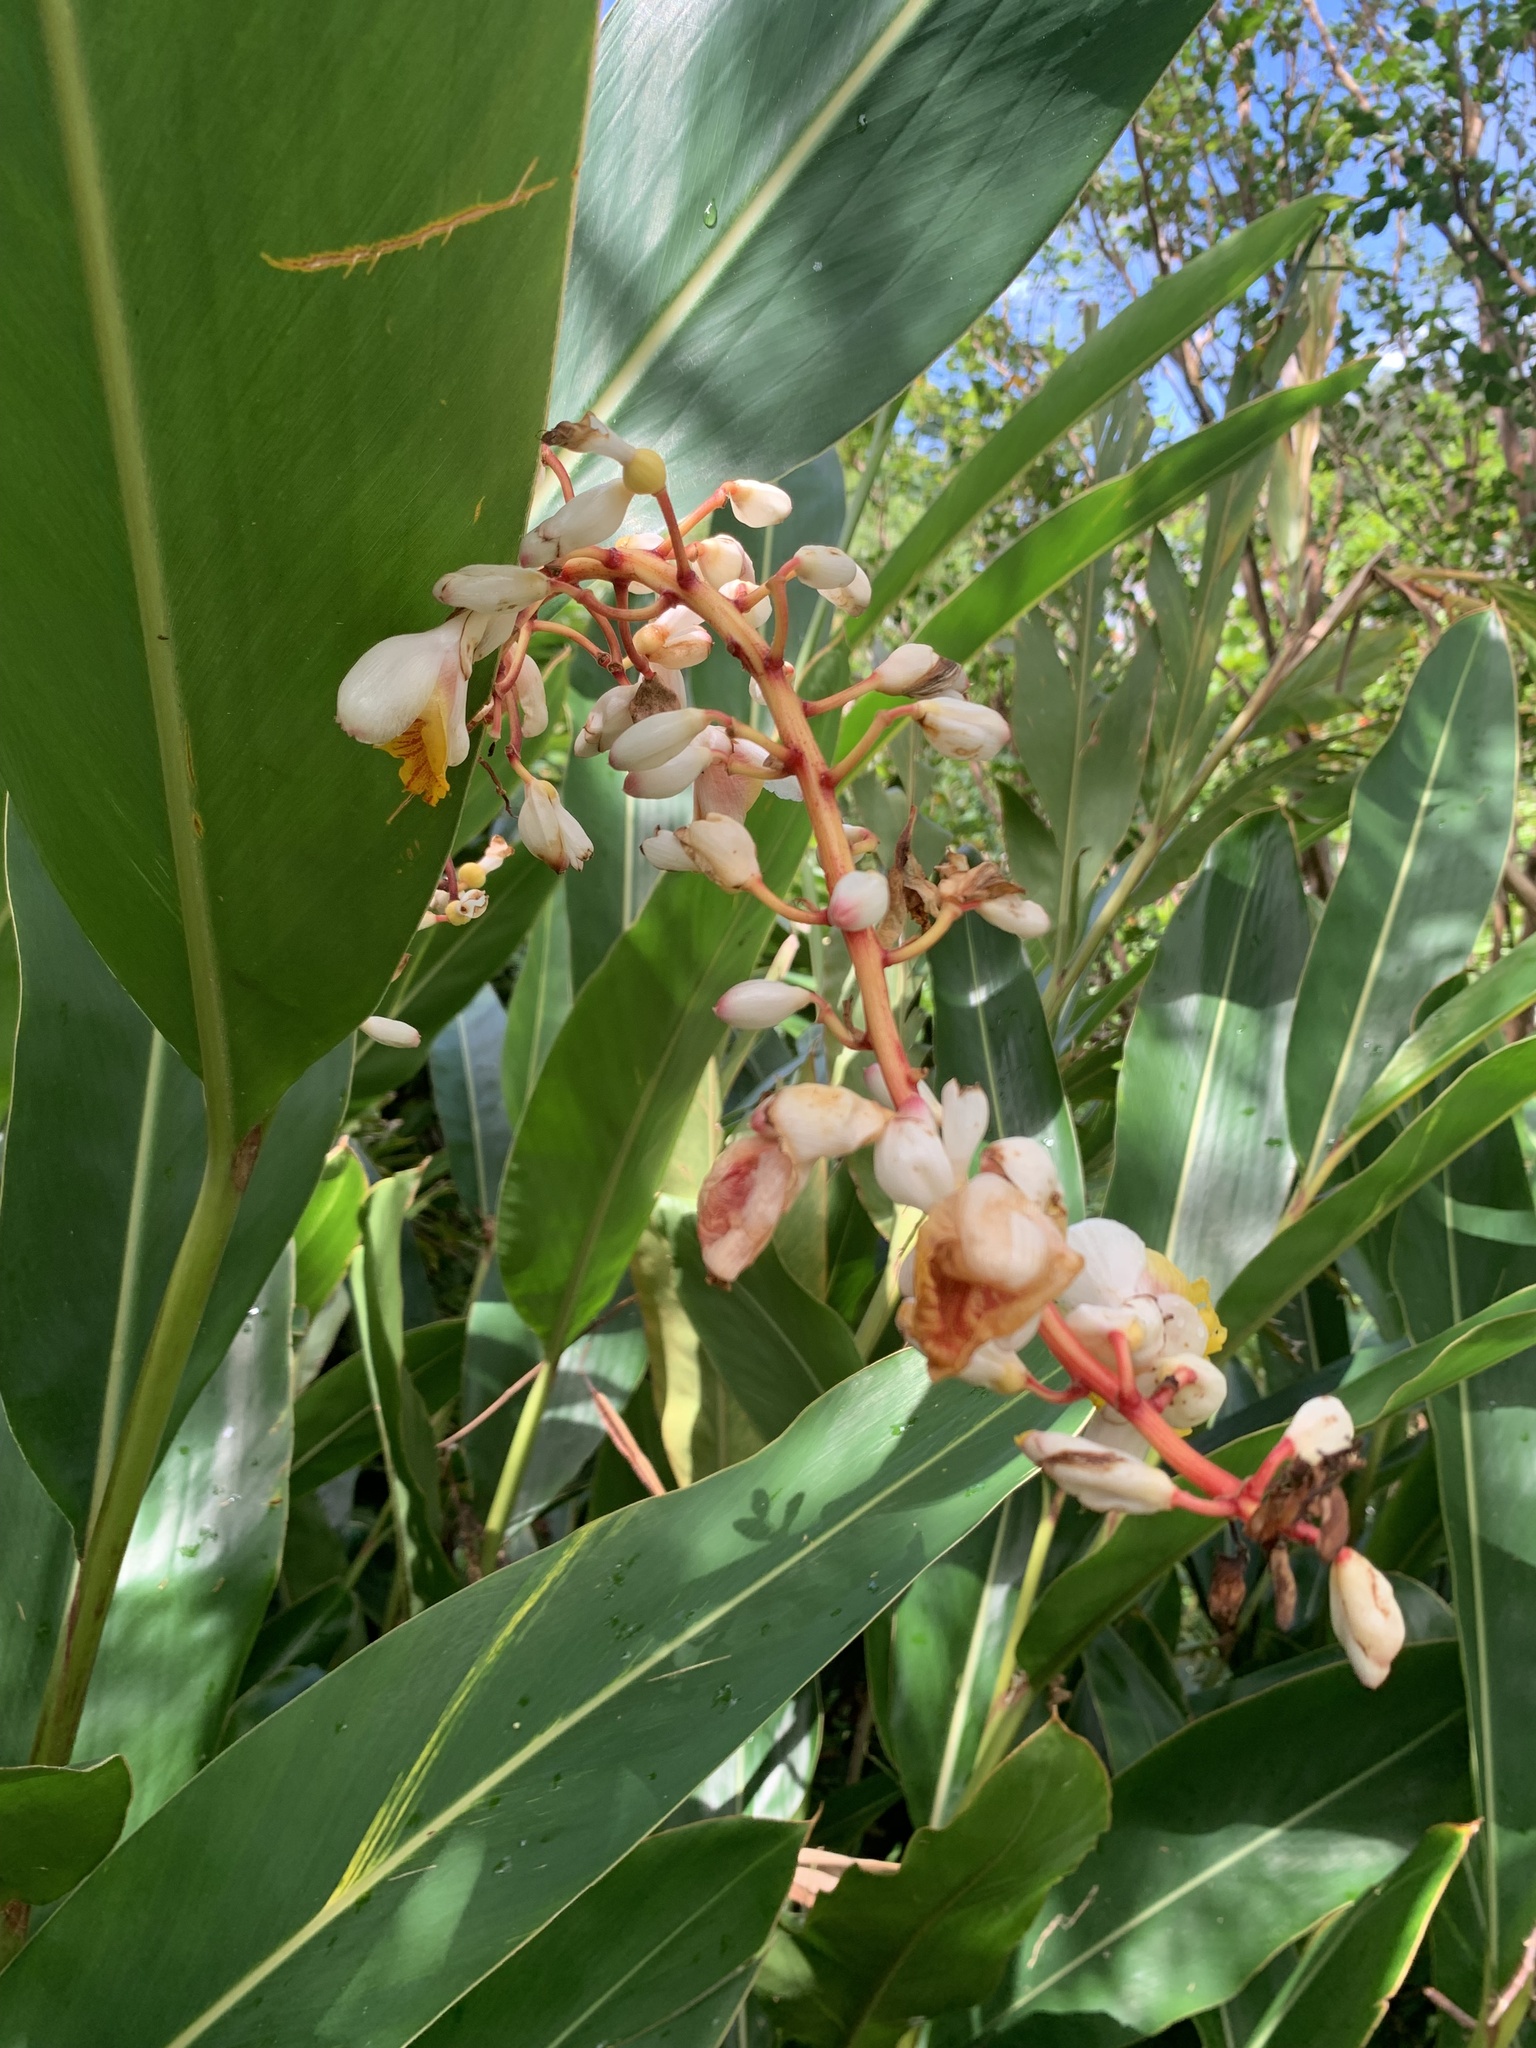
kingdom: Plantae
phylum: Tracheophyta
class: Liliopsida
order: Zingiberales
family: Zingiberaceae
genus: Alpinia
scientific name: Alpinia zerumbet
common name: Shellplant
